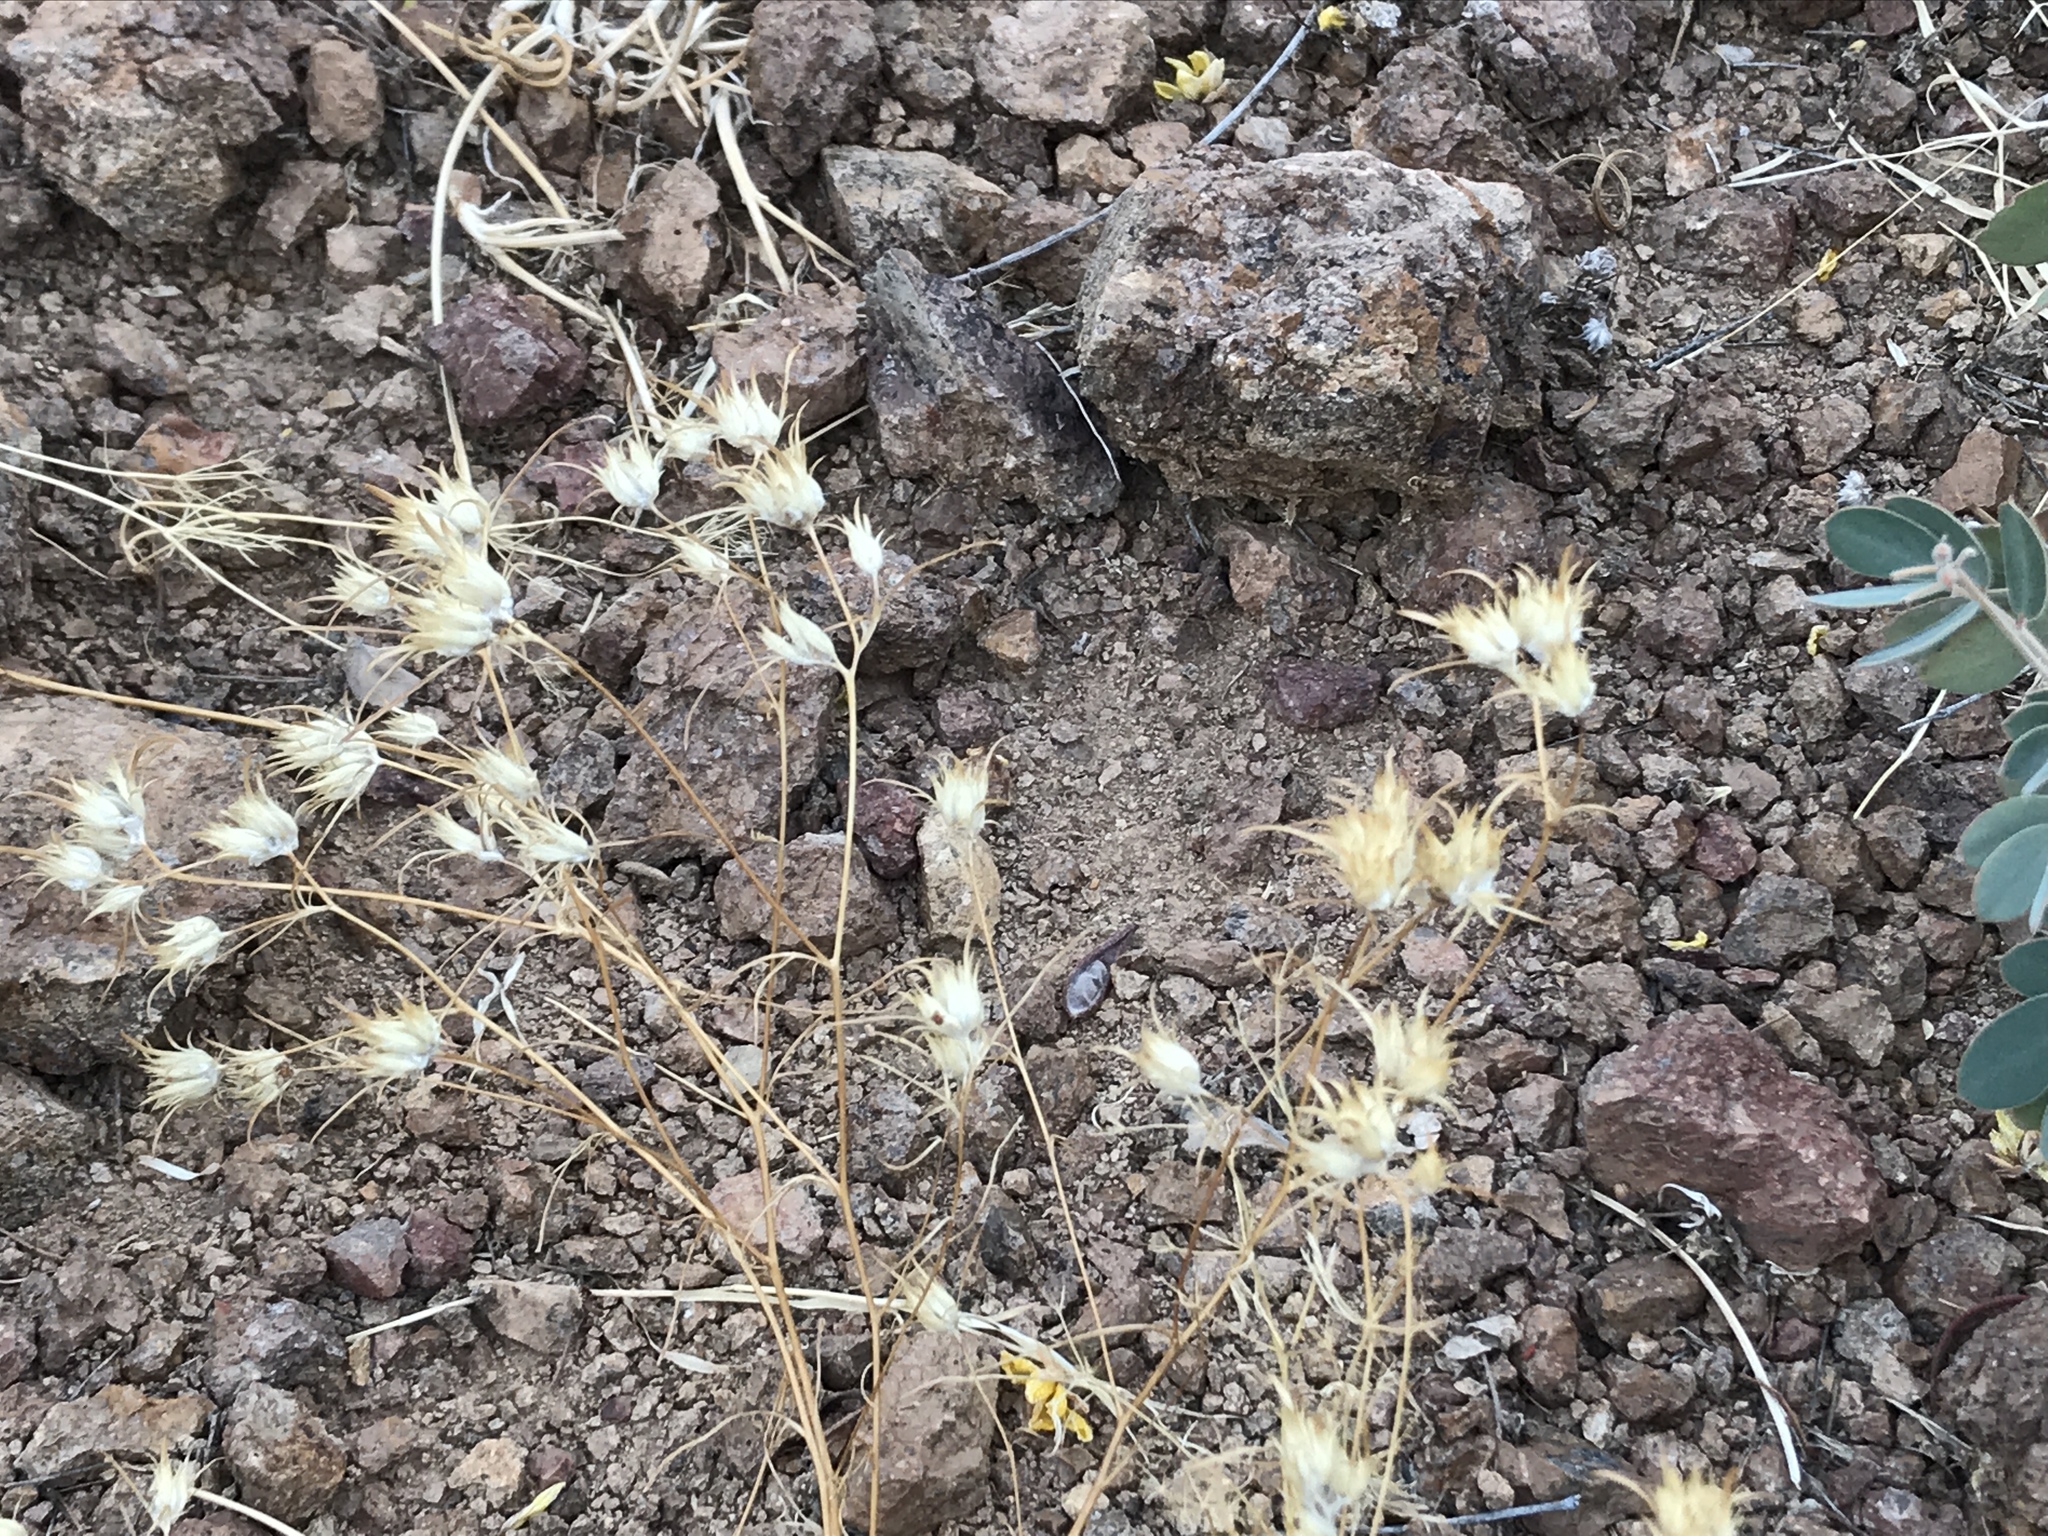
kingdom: Plantae
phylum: Tracheophyta
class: Magnoliopsida
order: Ericales
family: Polemoniaceae
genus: Eriastrum
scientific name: Eriastrum eremicum
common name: Desert eriastrum
